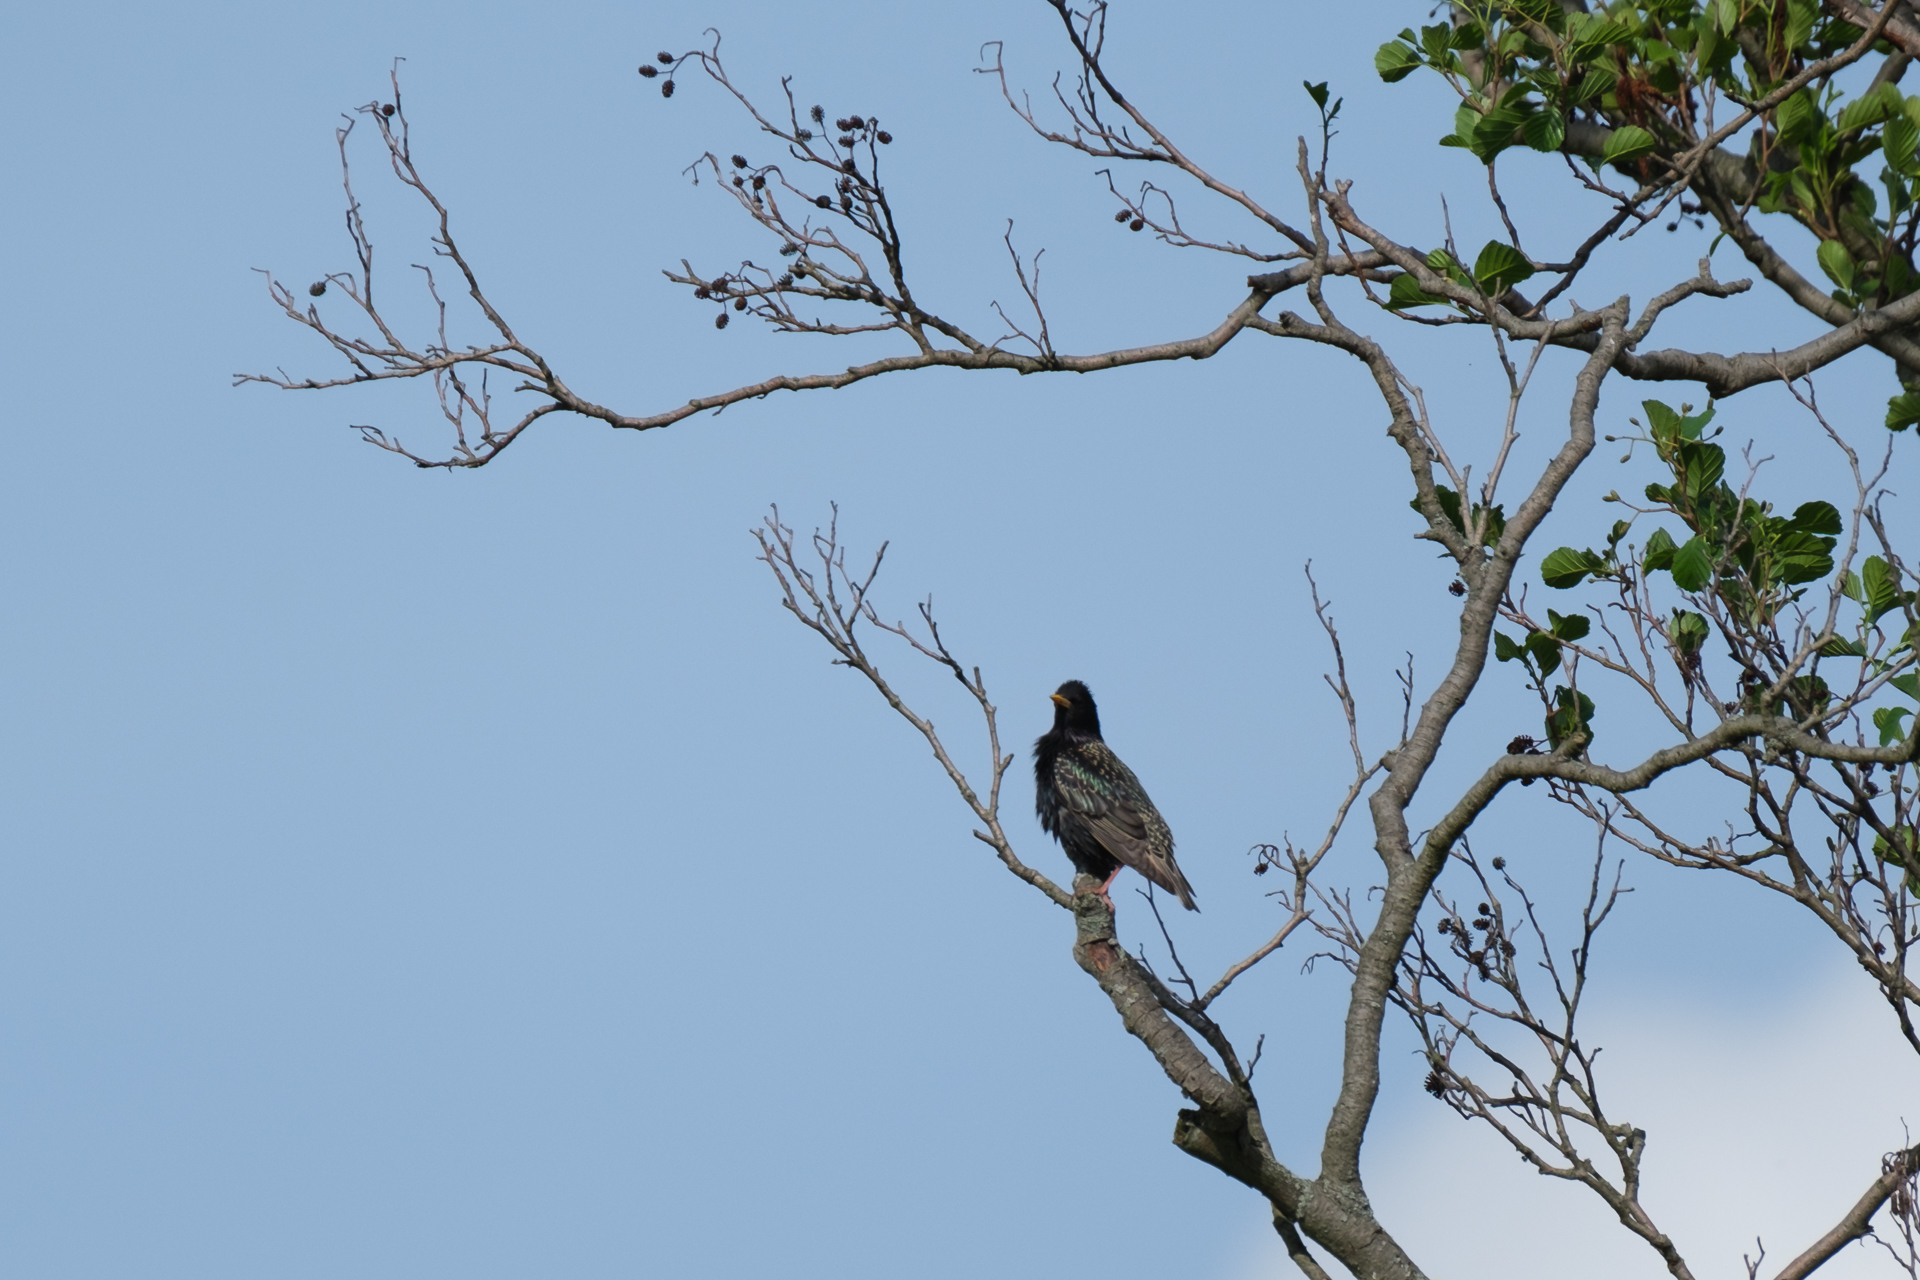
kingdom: Animalia
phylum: Chordata
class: Aves
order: Passeriformes
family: Sturnidae
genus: Sturnus
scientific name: Sturnus vulgaris
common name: Common starling
